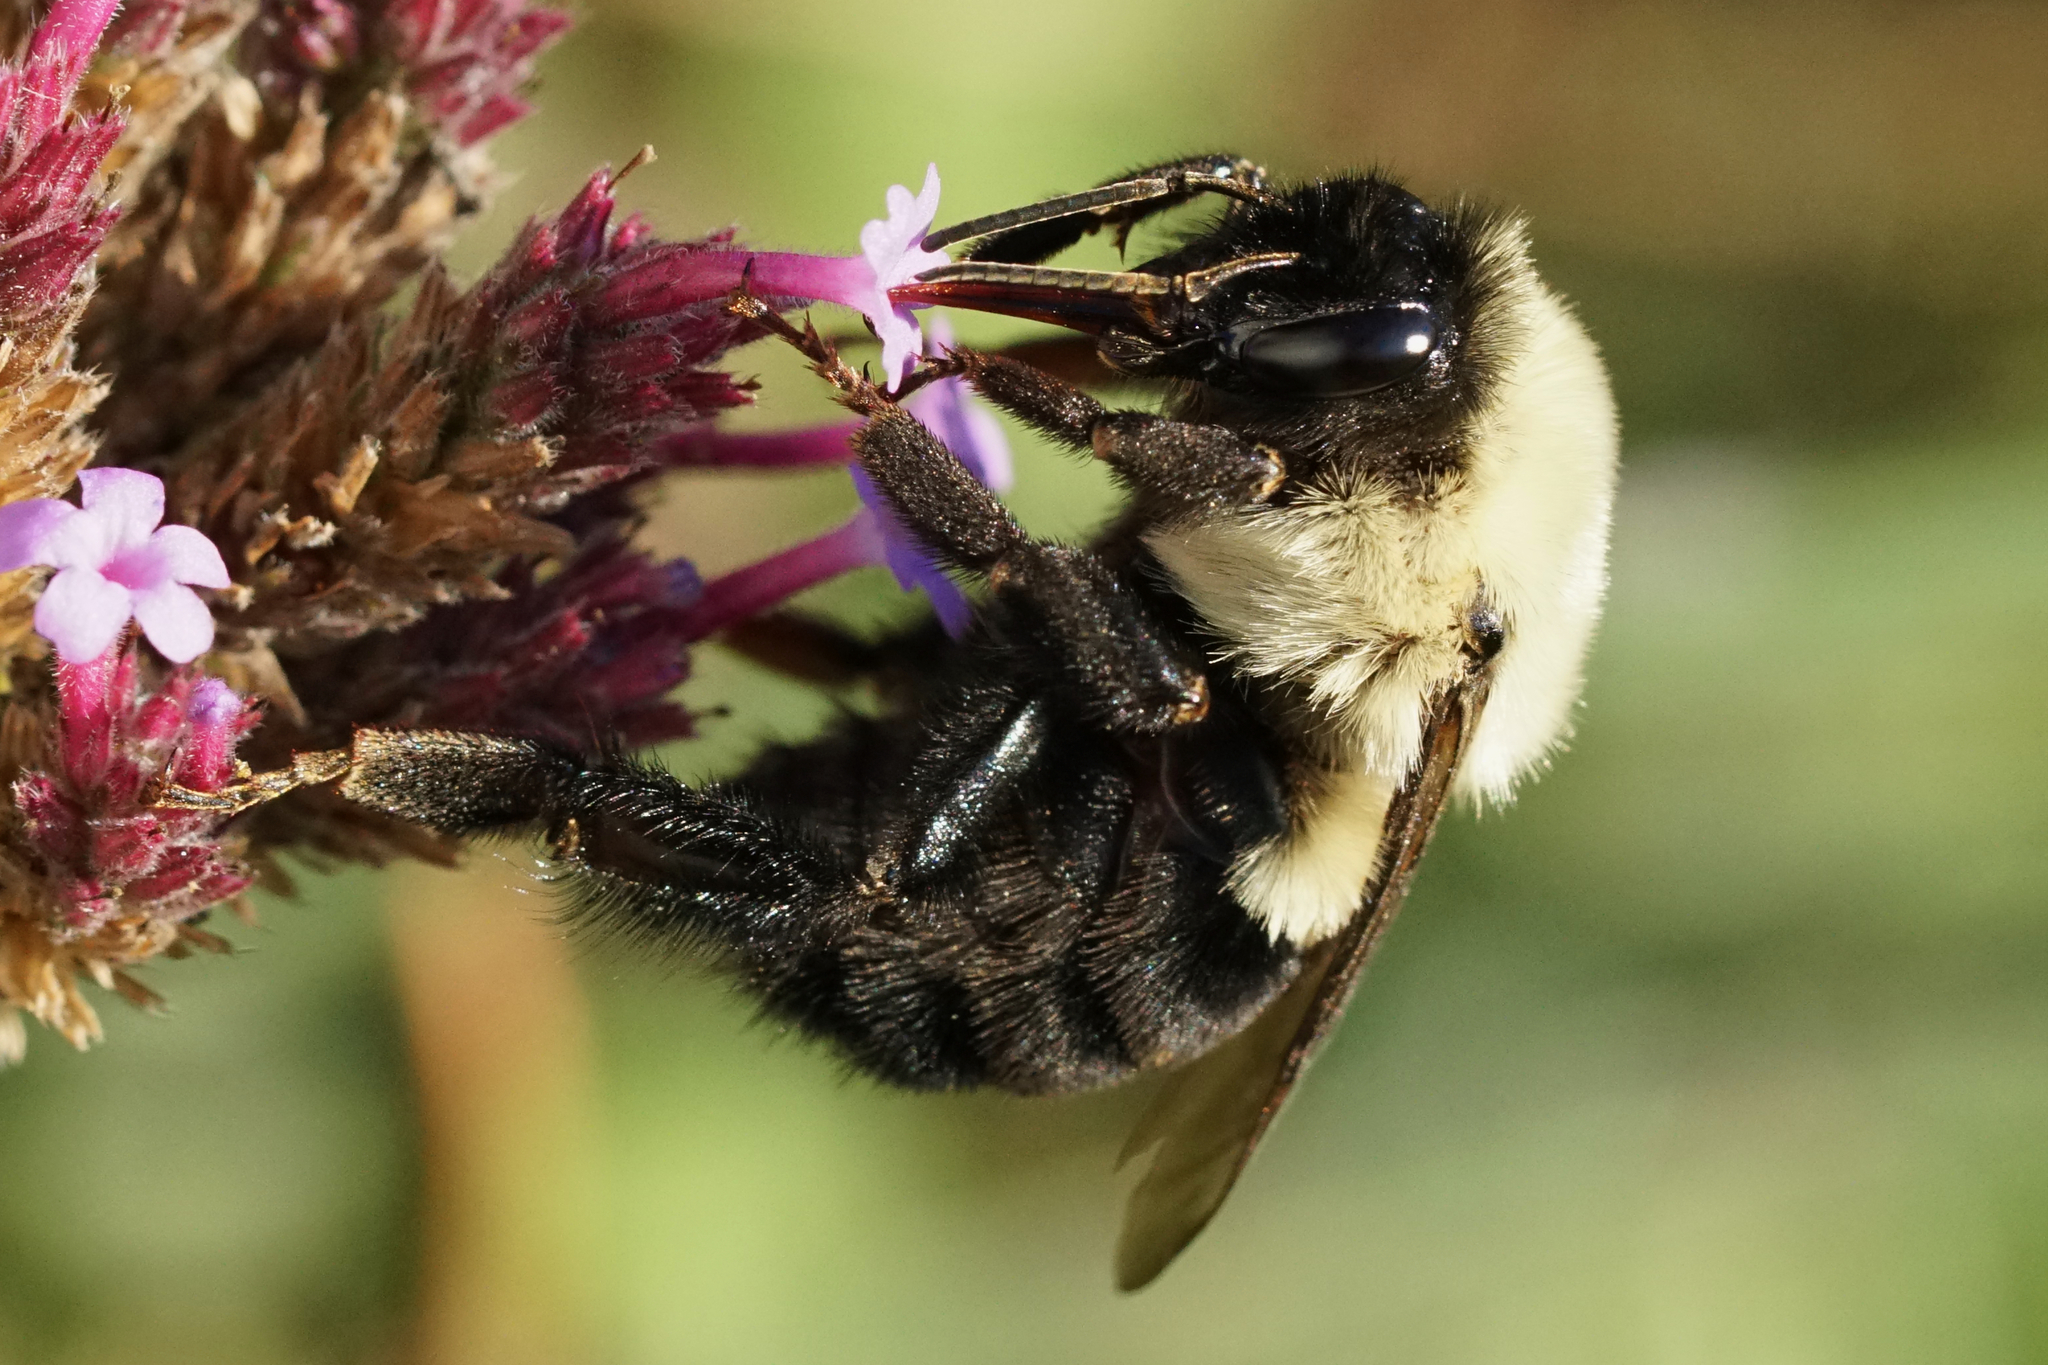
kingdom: Animalia
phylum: Arthropoda
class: Insecta
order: Hymenoptera
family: Apidae
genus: Bombus
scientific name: Bombus impatiens
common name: Common eastern bumble bee
